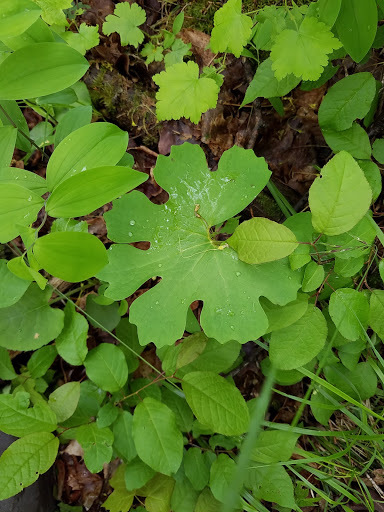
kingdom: Plantae
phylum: Tracheophyta
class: Magnoliopsida
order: Ranunculales
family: Papaveraceae
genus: Sanguinaria
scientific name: Sanguinaria canadensis
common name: Bloodroot
